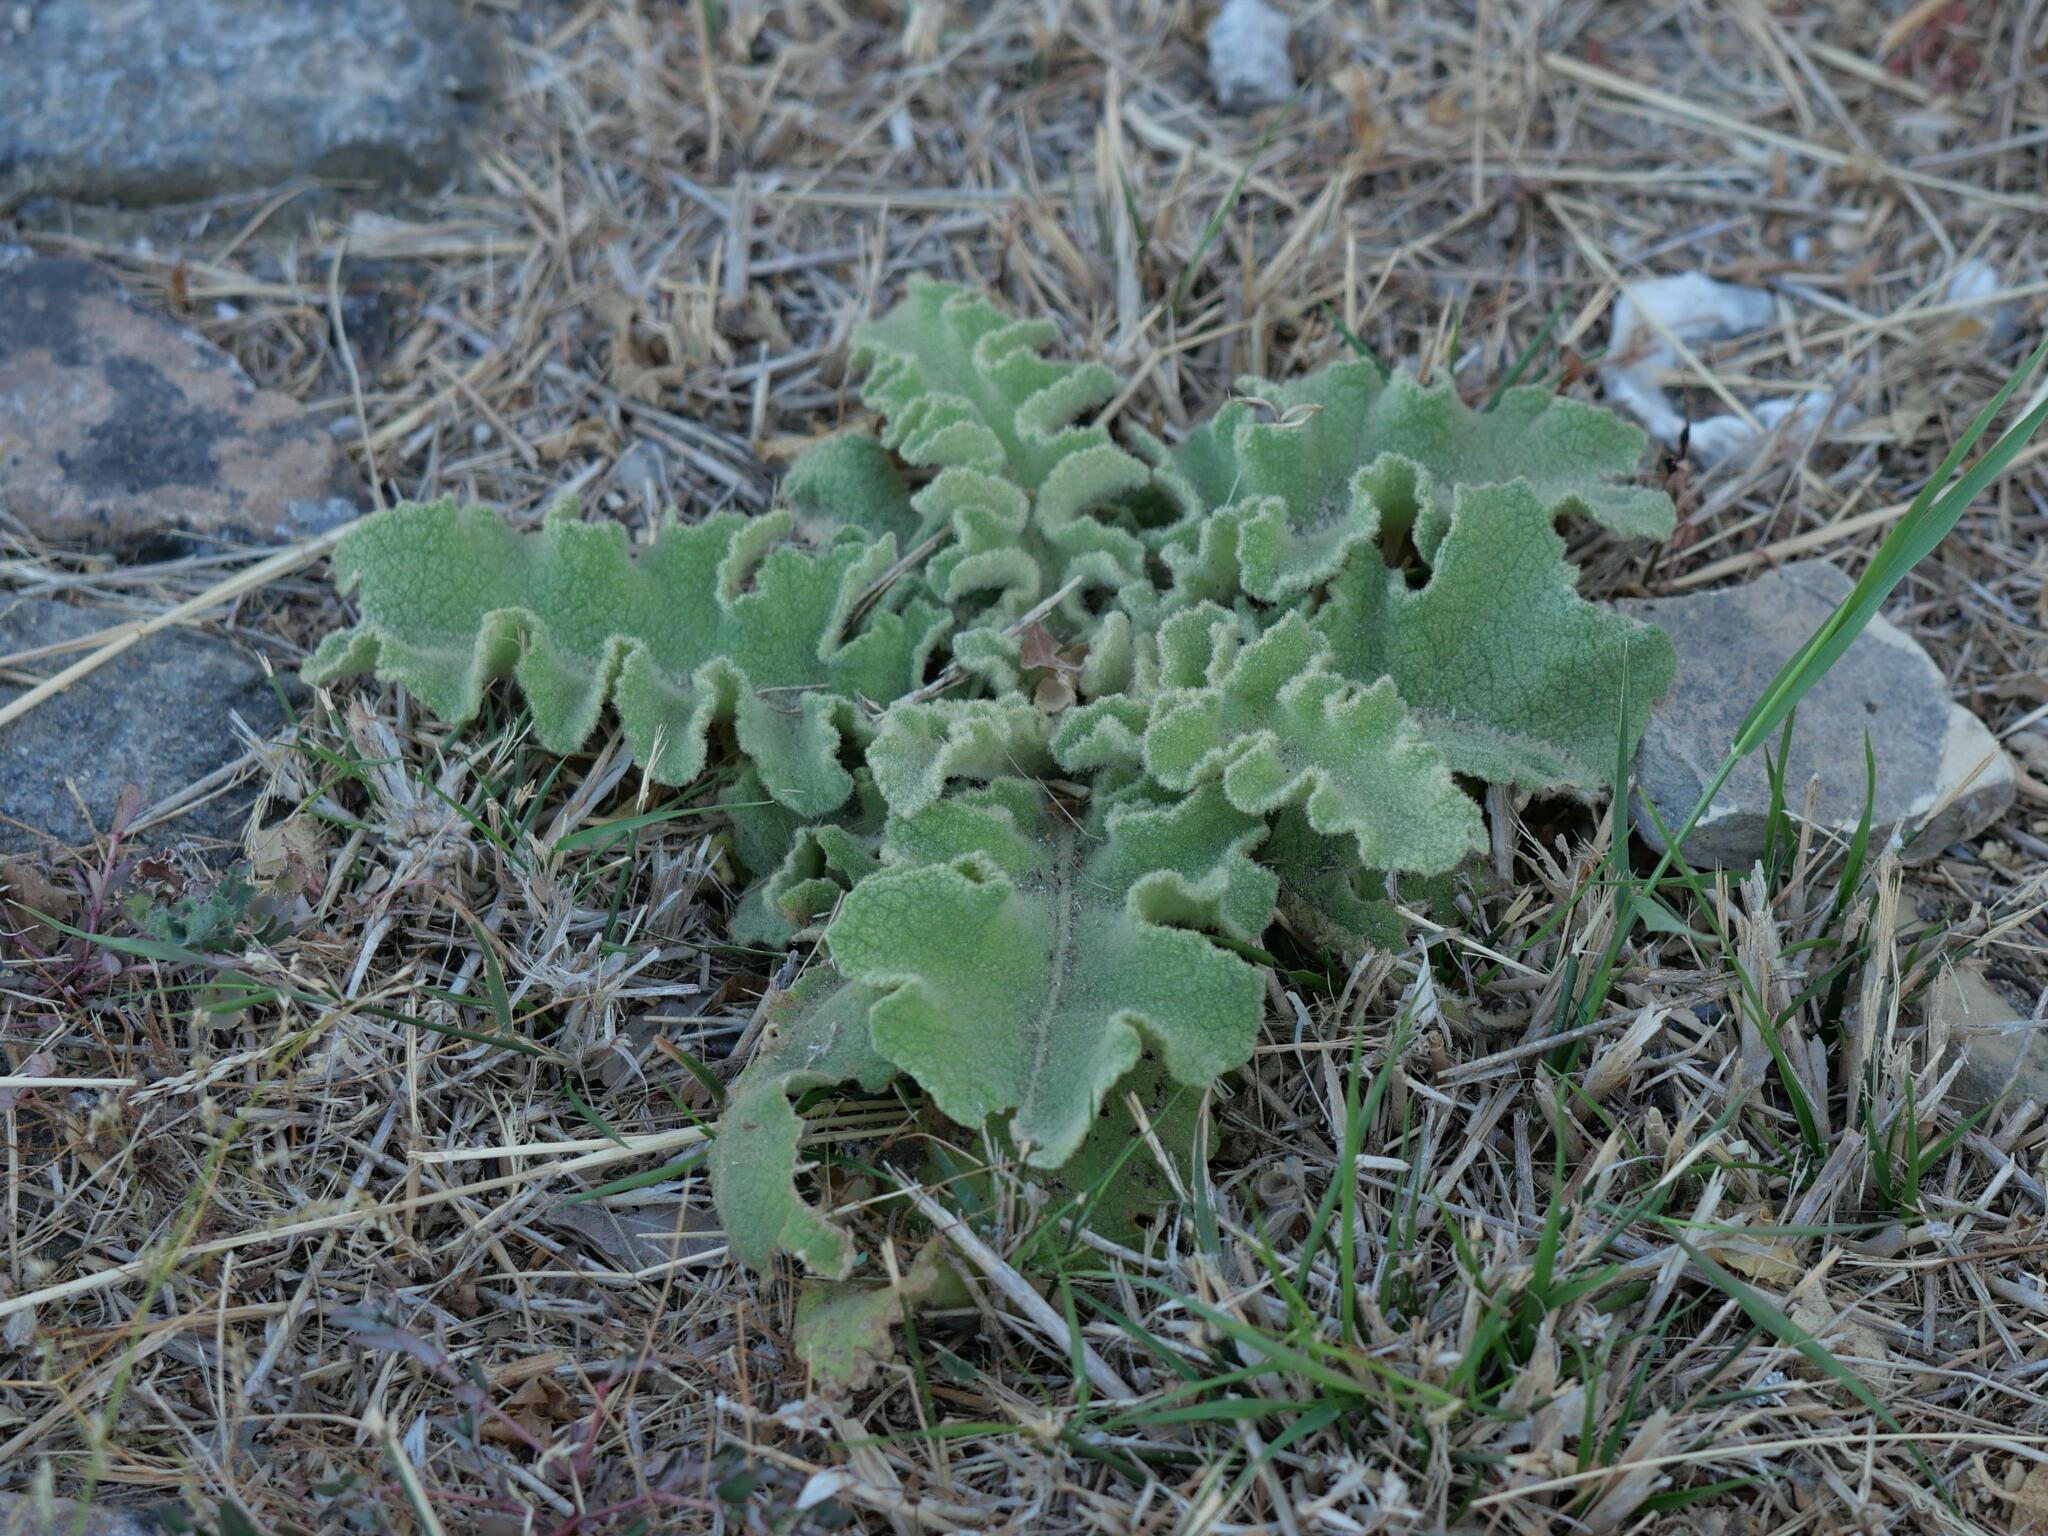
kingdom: Plantae
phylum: Tracheophyta
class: Magnoliopsida
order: Lamiales
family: Scrophulariaceae
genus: Verbascum
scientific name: Verbascum sinuatum
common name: Wavyleaf mullein
